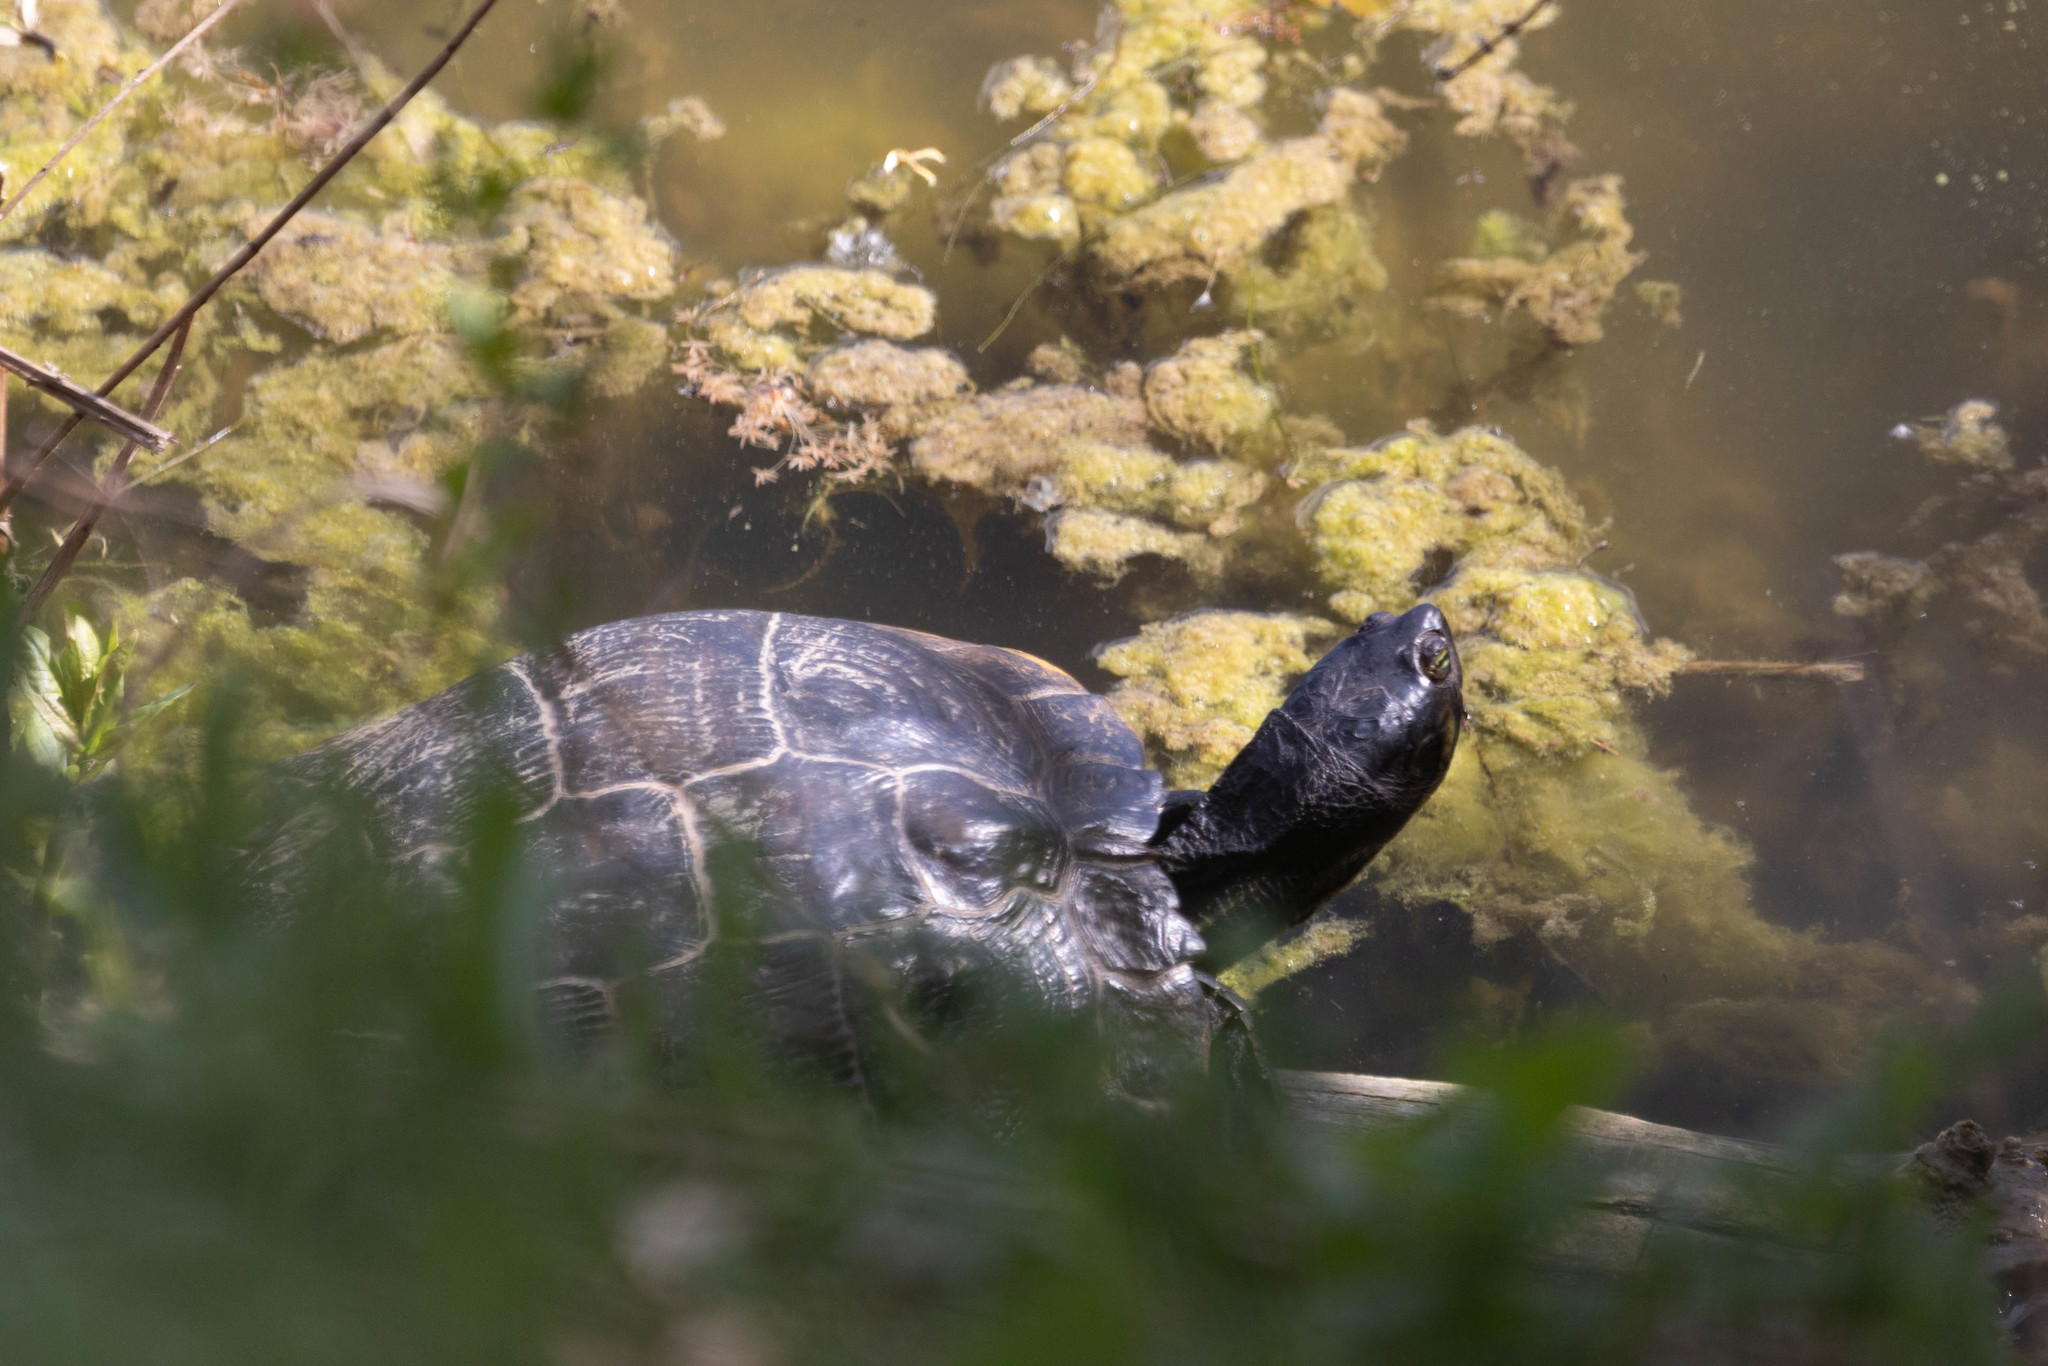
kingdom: Animalia
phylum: Chordata
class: Testudines
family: Emydidae
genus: Trachemys
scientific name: Trachemys scripta
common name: Slider
